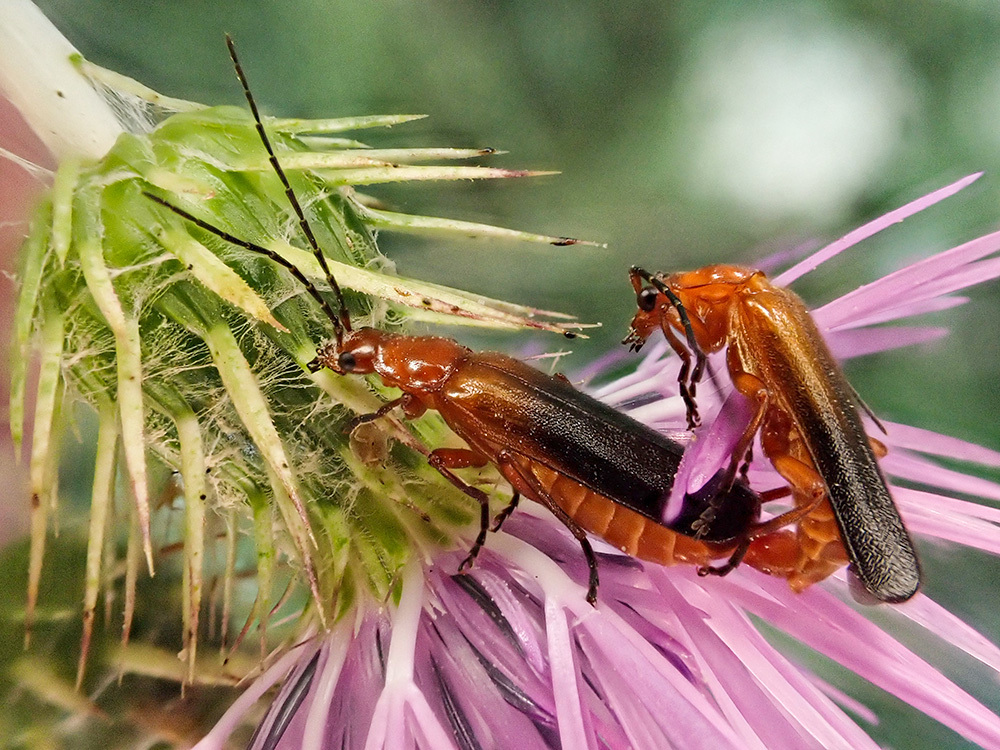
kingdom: Animalia
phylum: Arthropoda
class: Insecta
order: Coleoptera
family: Cantharidae
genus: Rhagonycha
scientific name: Rhagonycha fulva
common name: Common red soldier beetle
